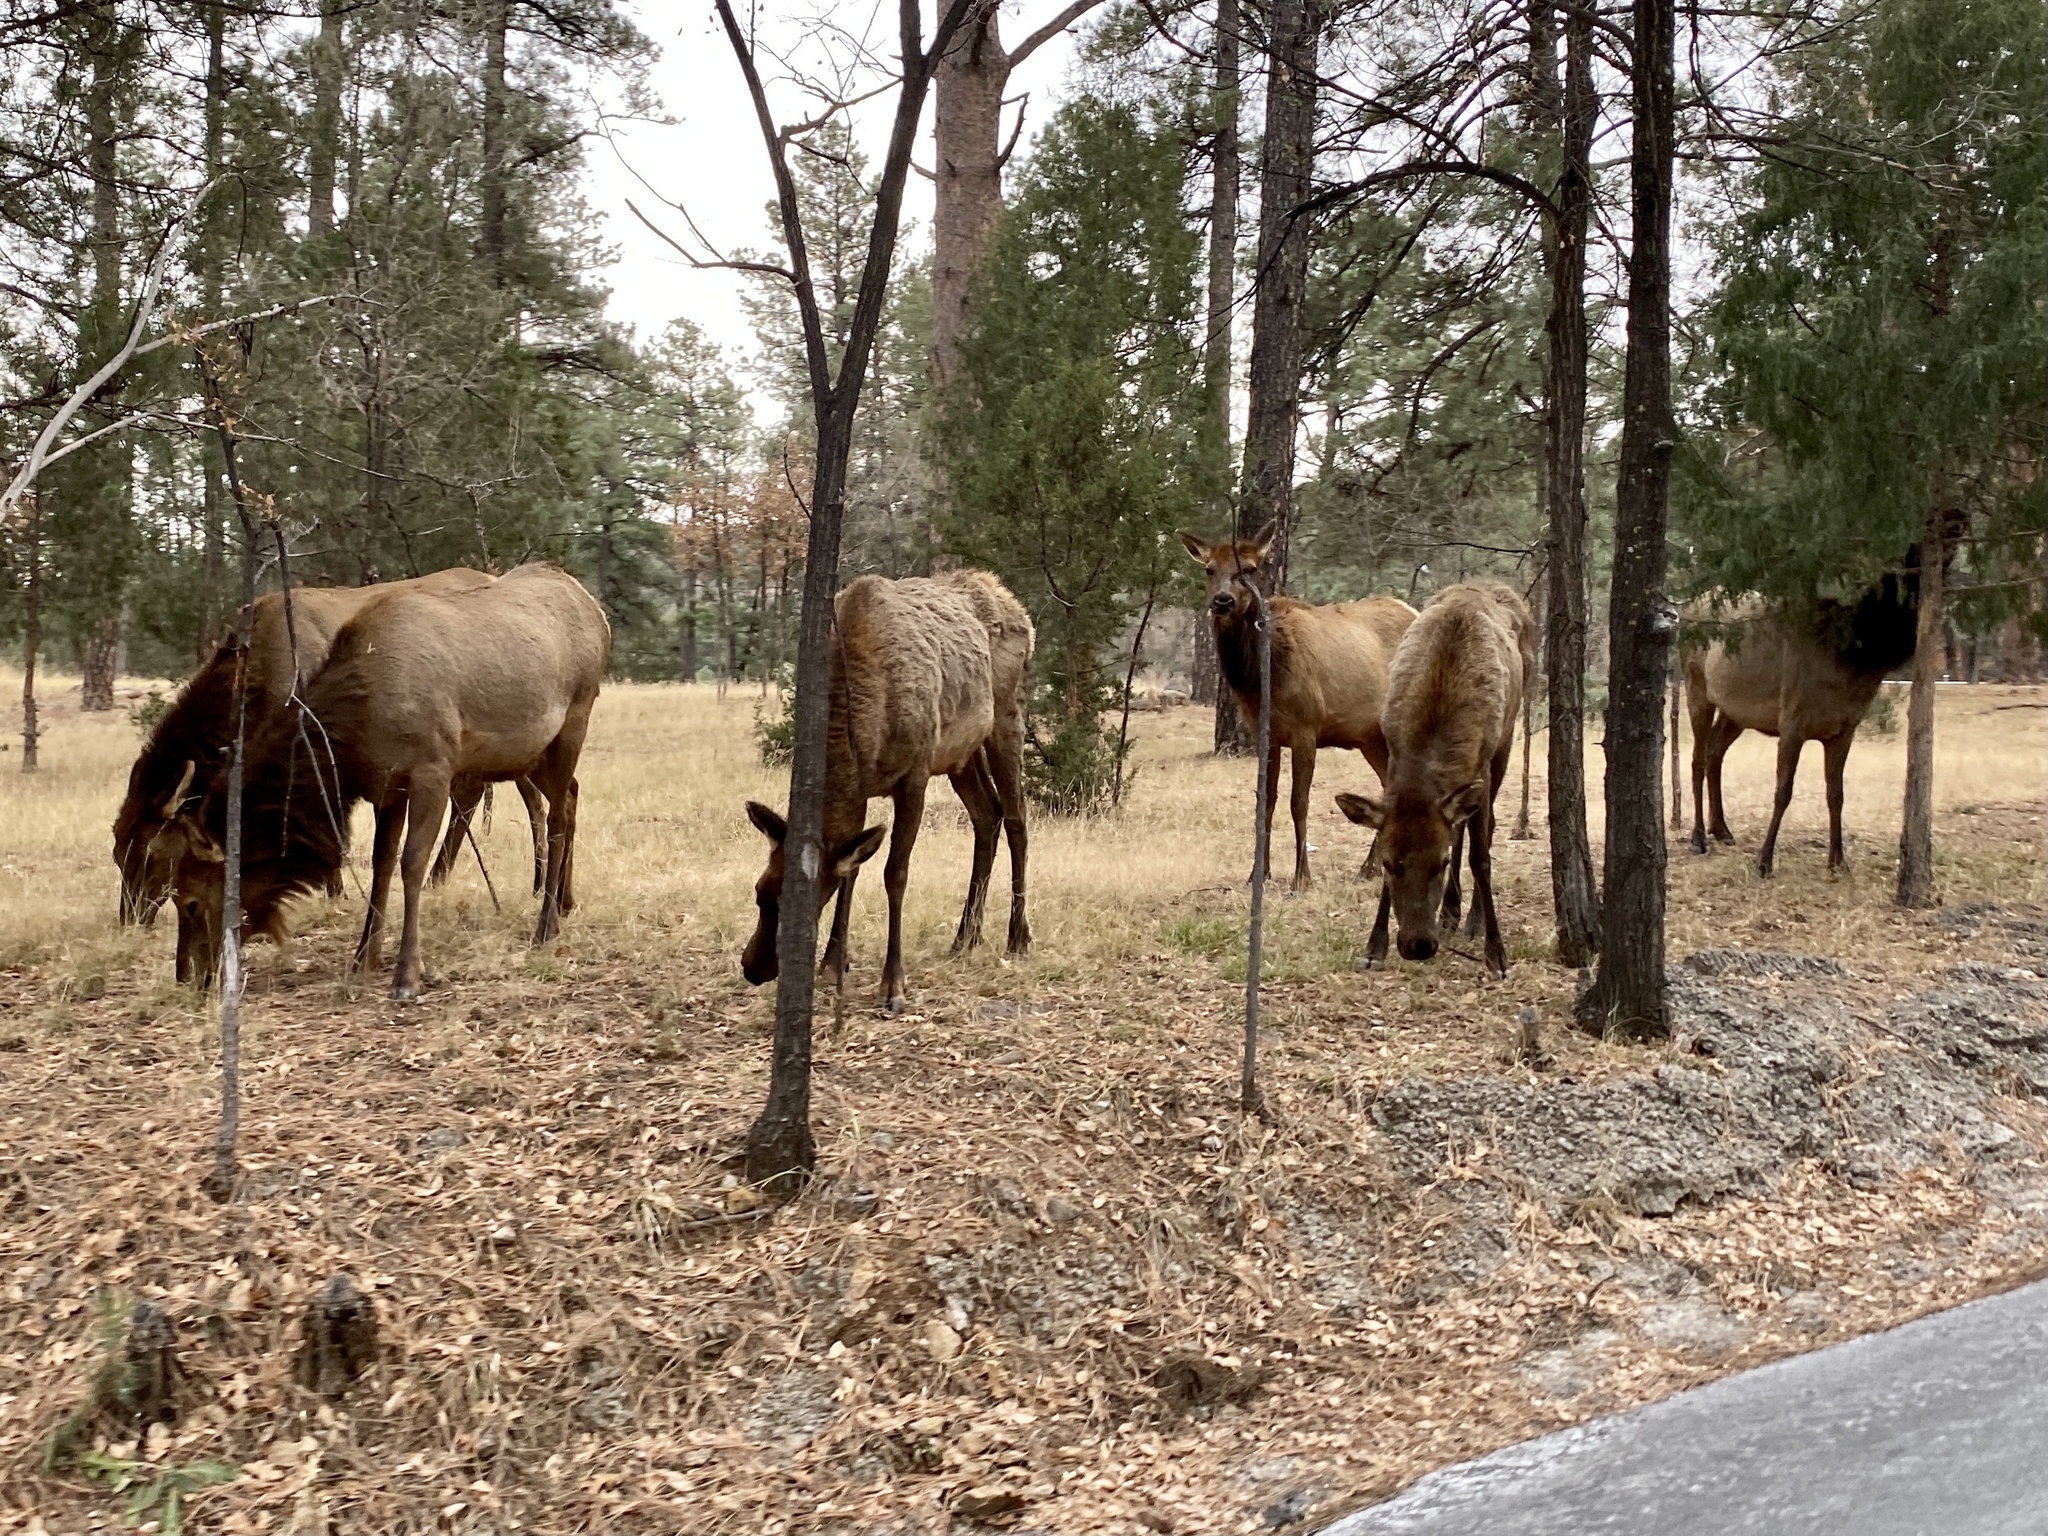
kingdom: Animalia
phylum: Chordata
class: Mammalia
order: Artiodactyla
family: Cervidae
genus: Cervus
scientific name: Cervus elaphus
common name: Red deer
